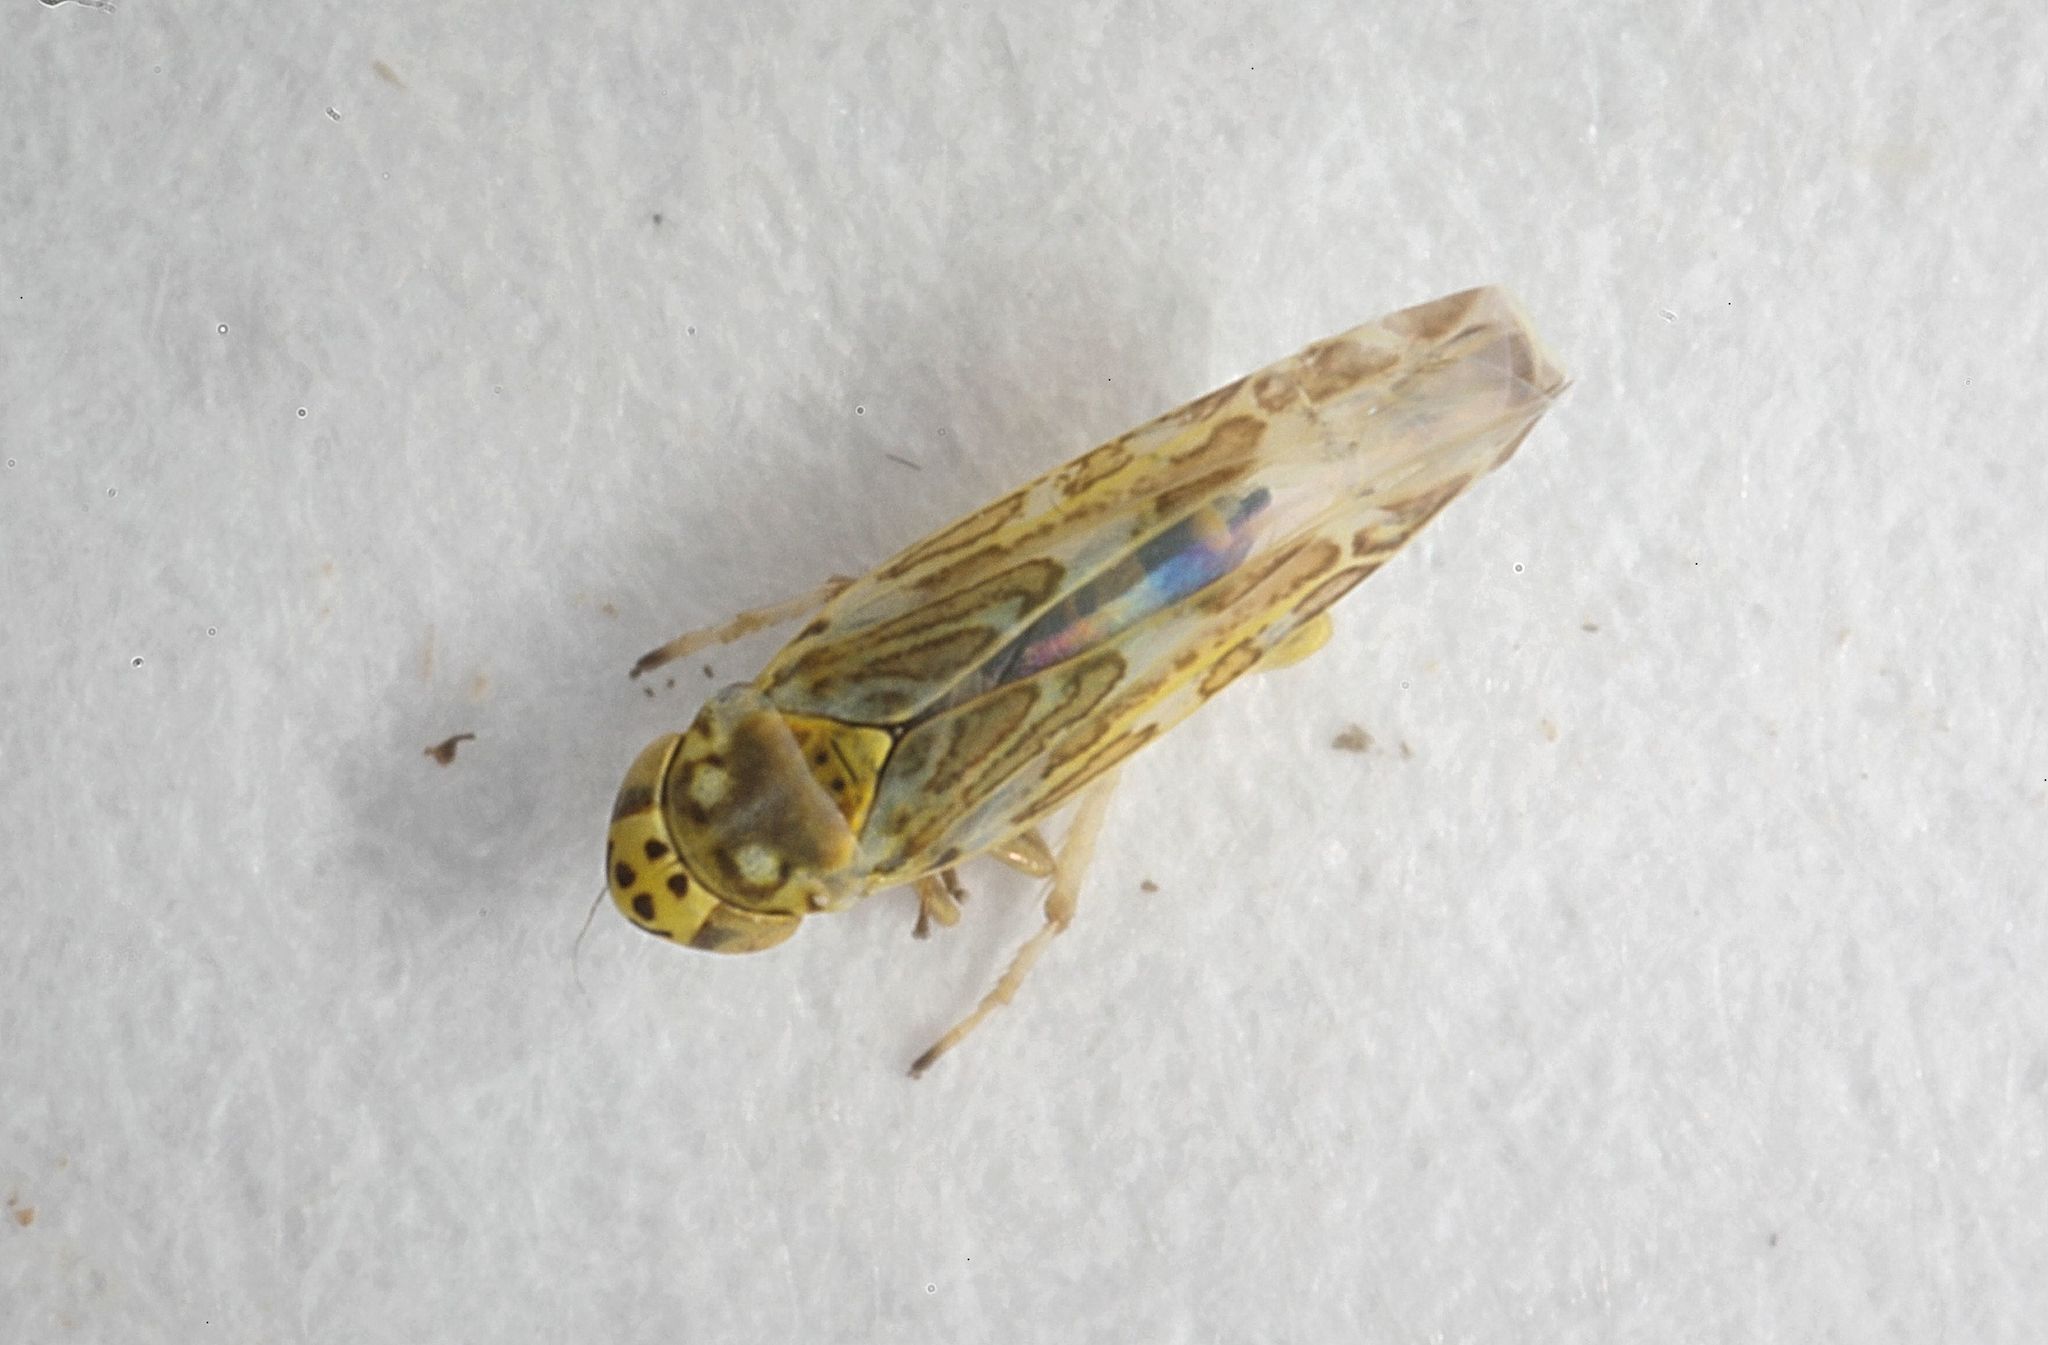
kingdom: Animalia
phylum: Arthropoda
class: Insecta
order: Hemiptera
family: Cicadellidae
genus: Eupteryx
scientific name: Eupteryx decemnotata
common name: Ligurian leafhopper
